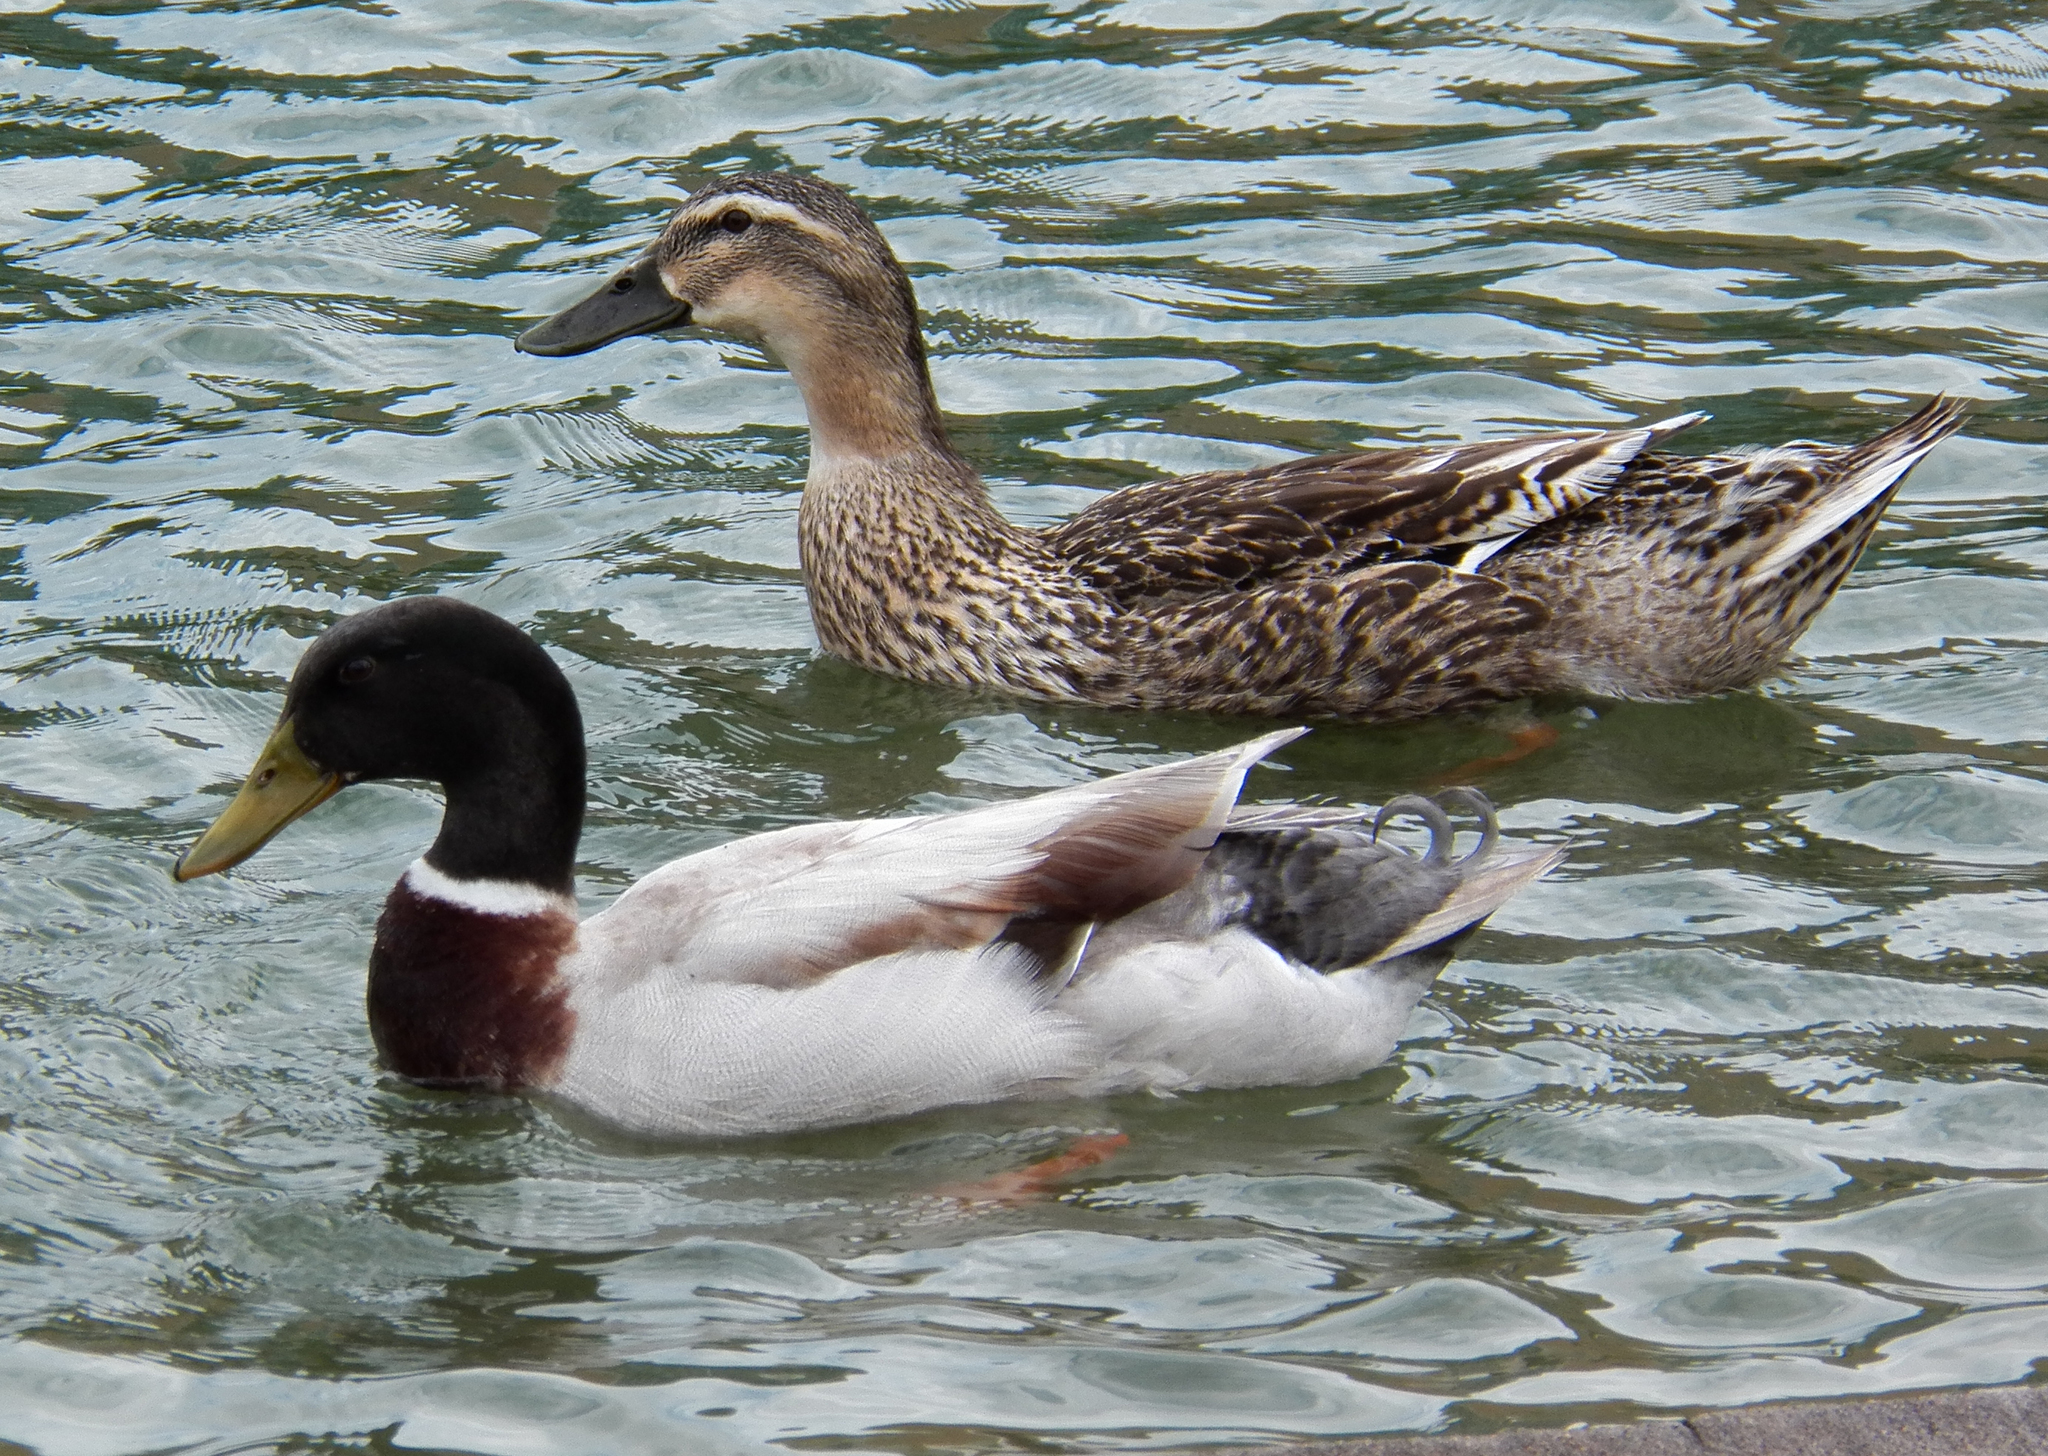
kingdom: Animalia
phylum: Chordata
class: Aves
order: Anseriformes
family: Anatidae
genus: Anas
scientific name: Anas platyrhynchos
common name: Mallard
